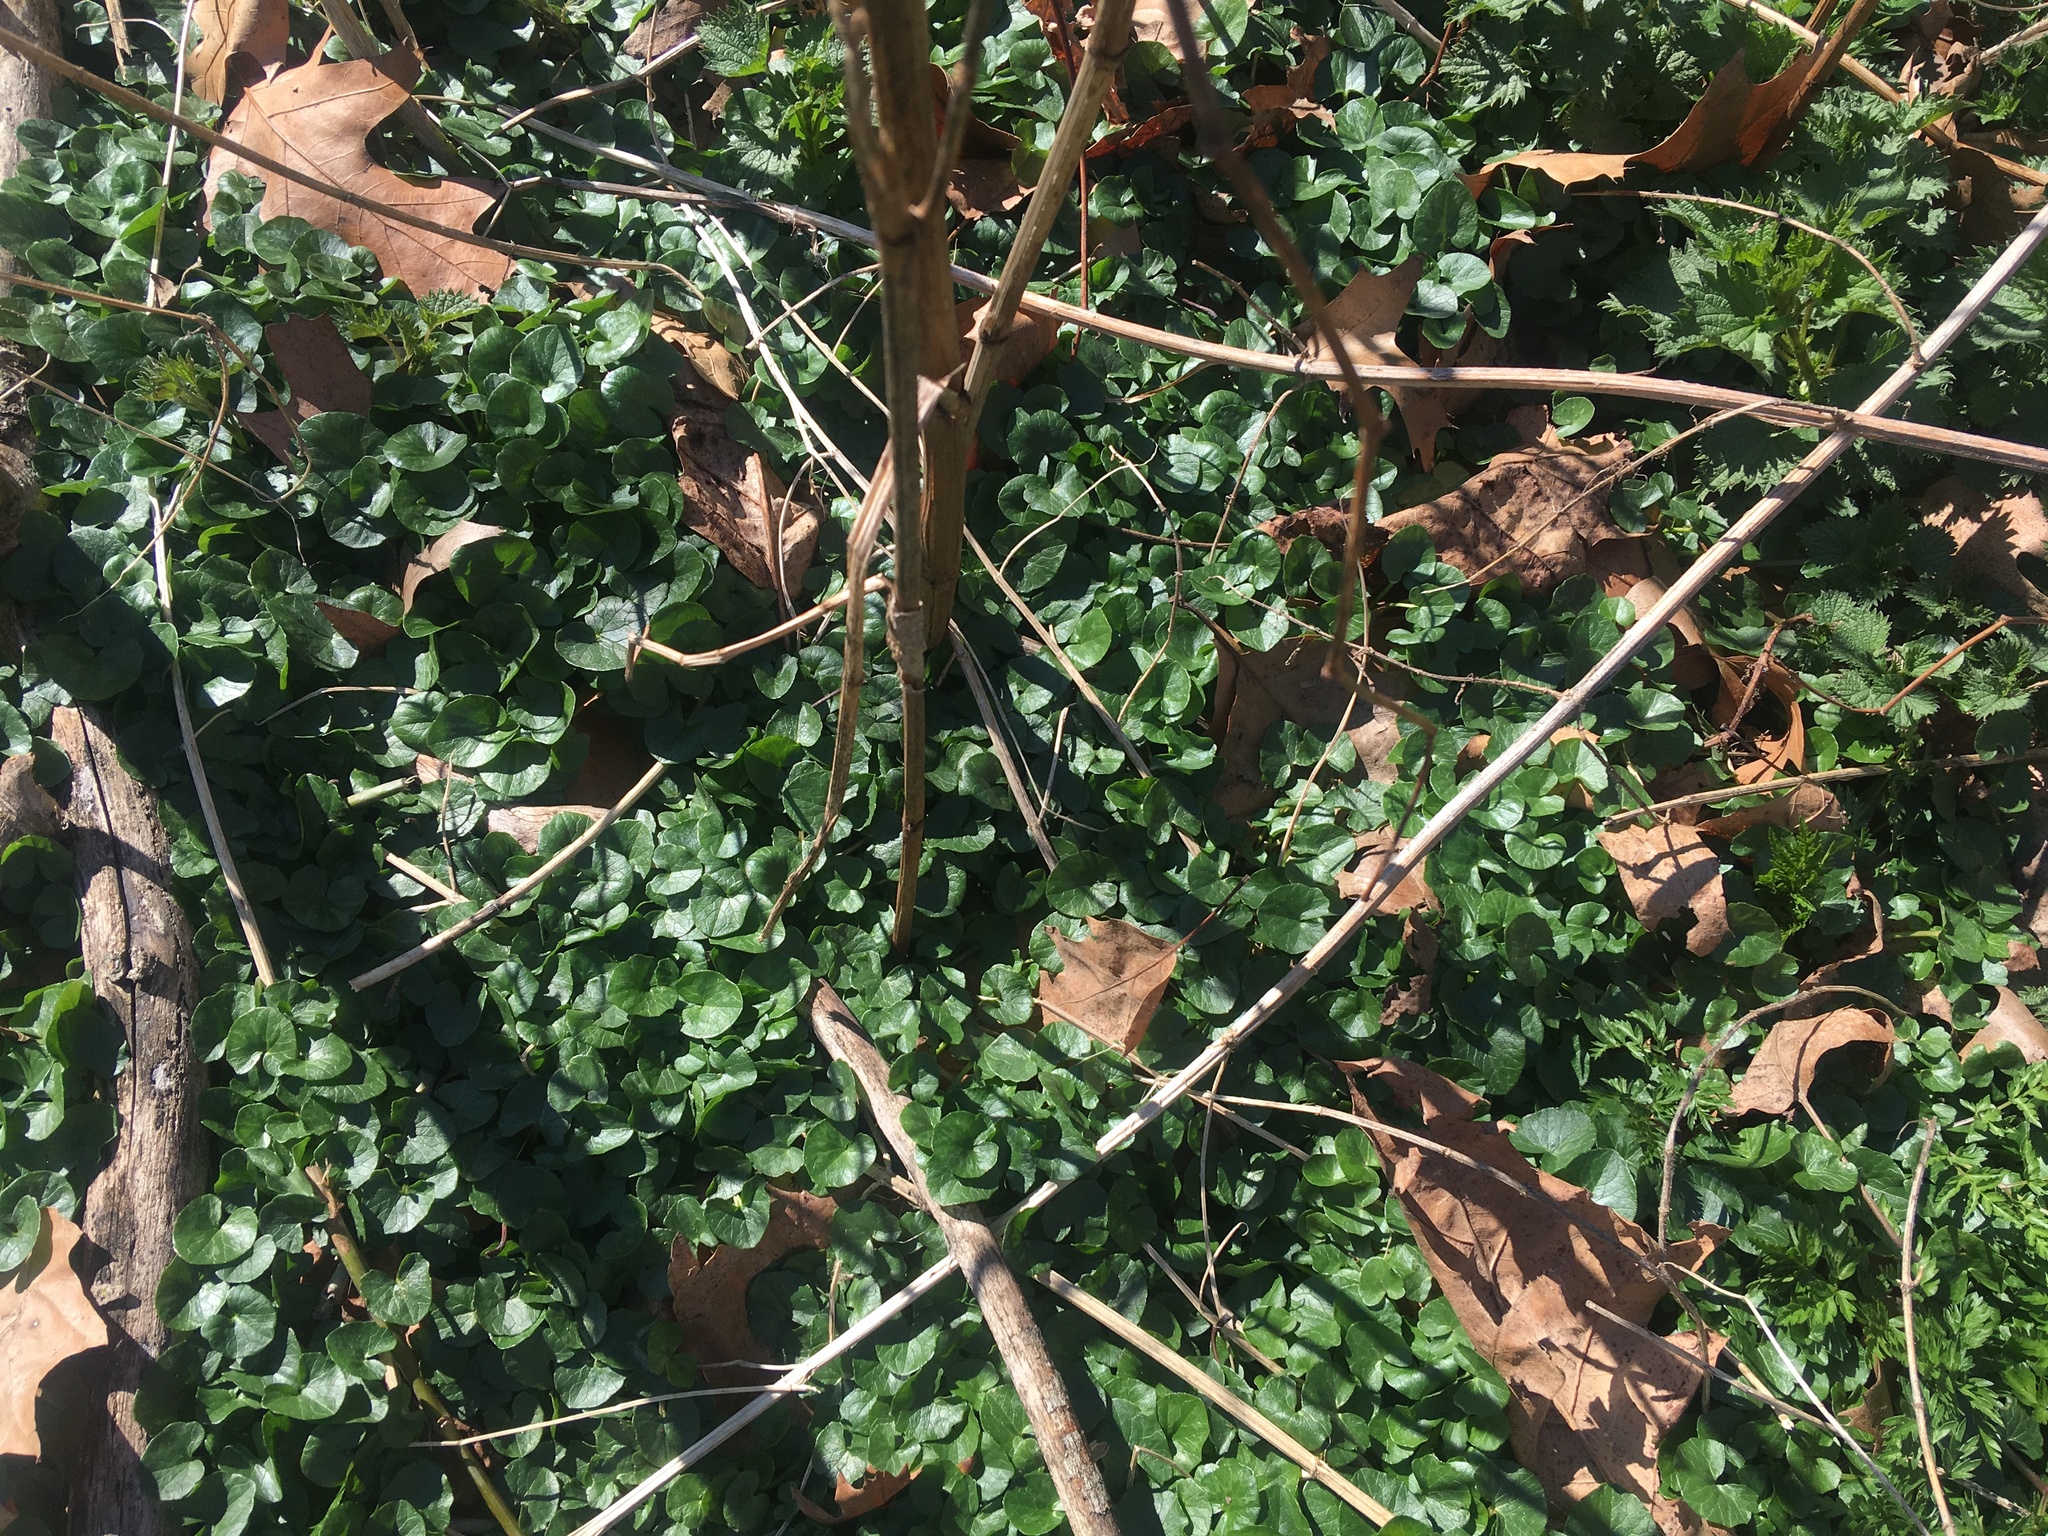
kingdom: Plantae
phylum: Tracheophyta
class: Magnoliopsida
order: Ranunculales
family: Ranunculaceae
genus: Ficaria
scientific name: Ficaria verna
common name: Lesser celandine
